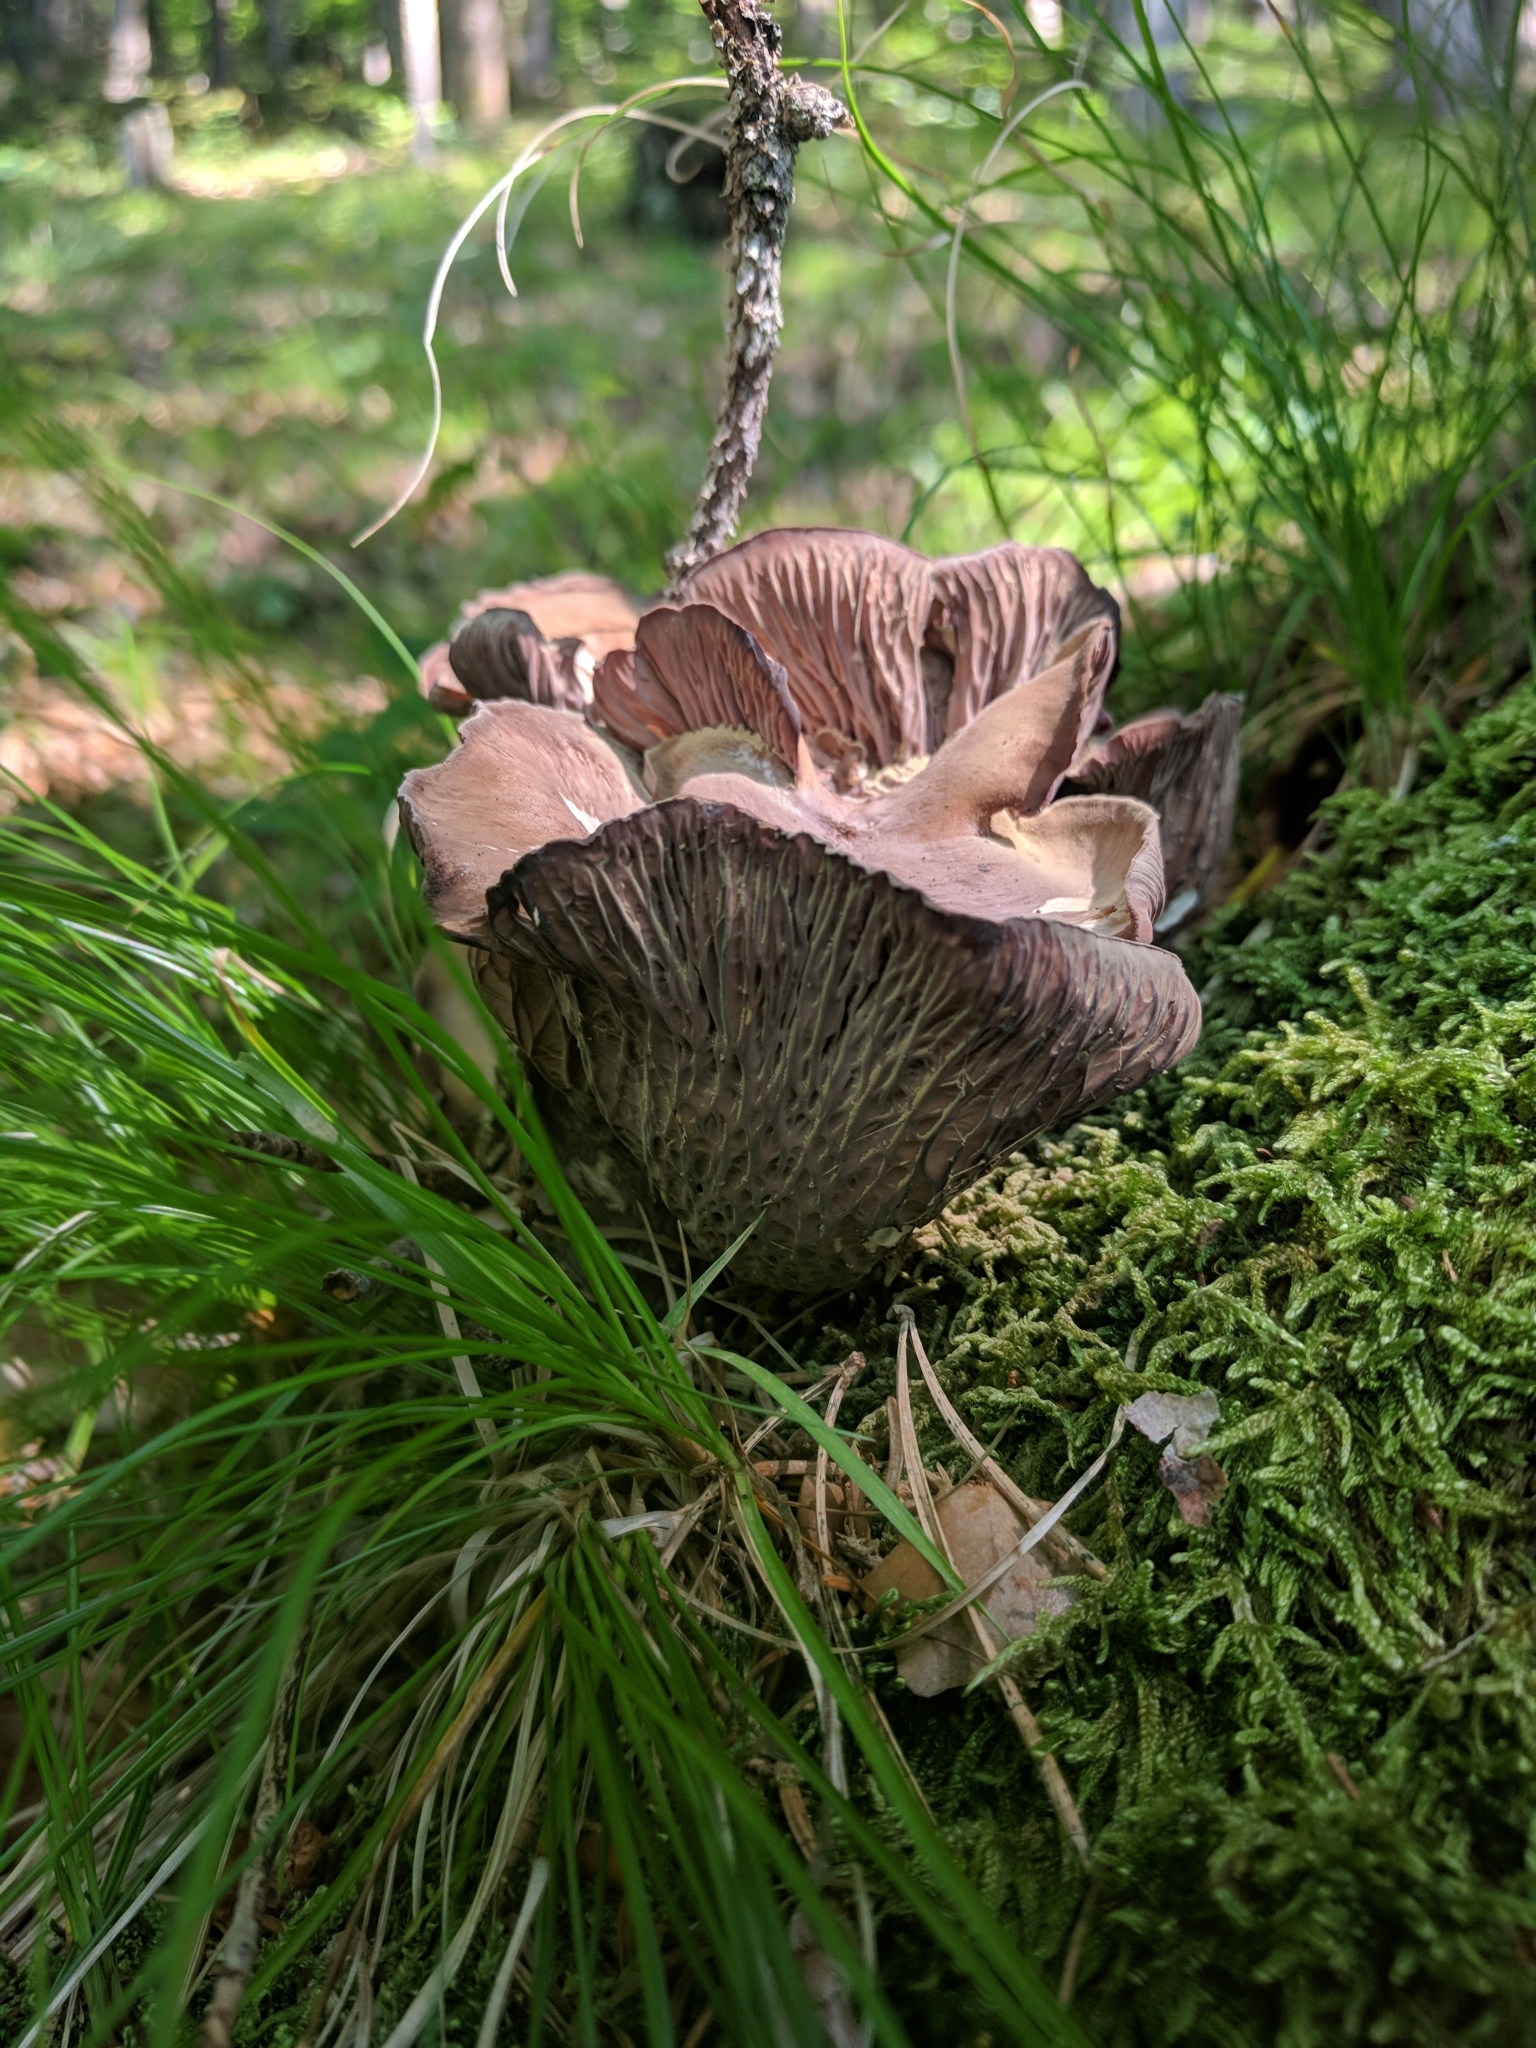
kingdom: Fungi
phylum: Basidiomycota
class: Agaricomycetes
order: Gomphales
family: Gomphaceae
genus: Gomphus
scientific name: Gomphus clavatus
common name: Pig's ear
